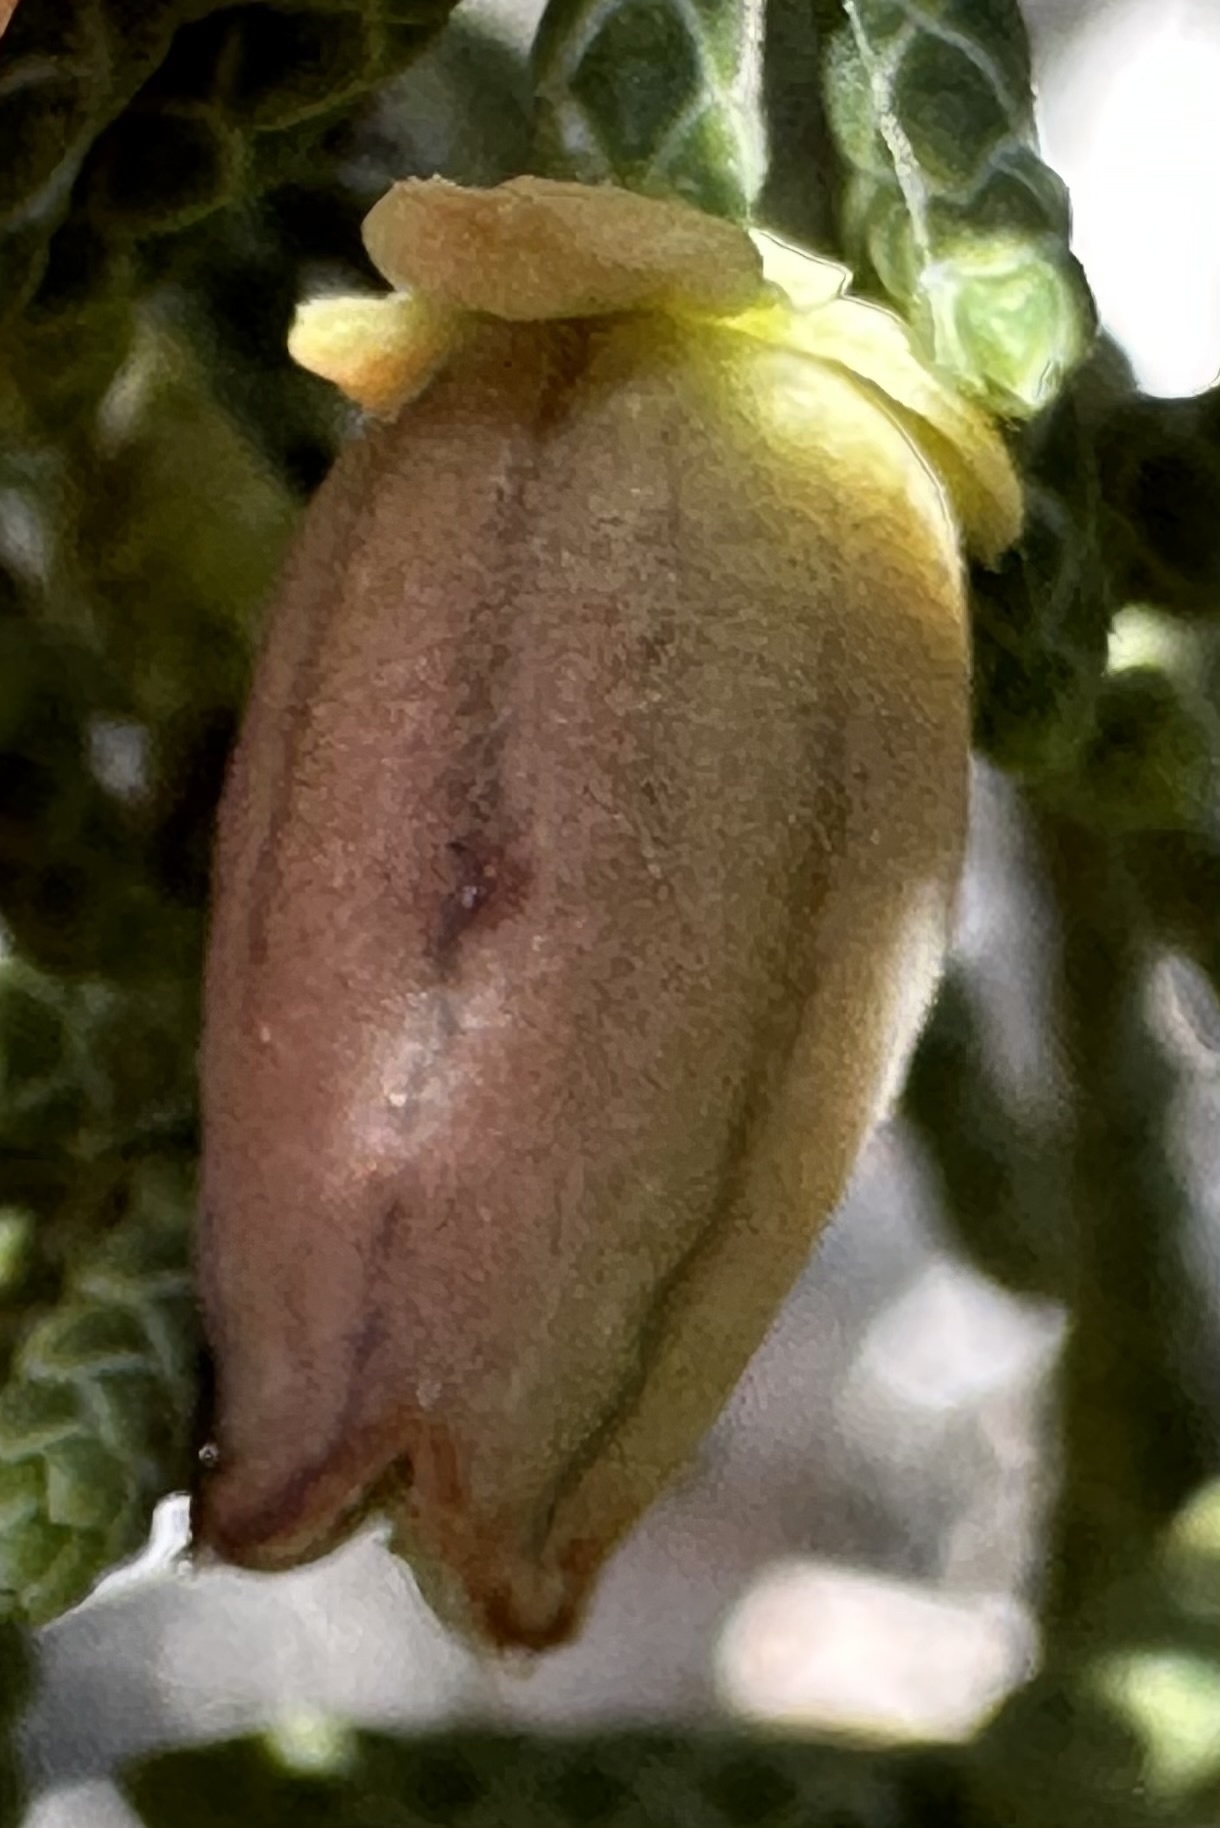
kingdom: Animalia
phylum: Arthropoda
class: Insecta
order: Diptera
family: Cecidomyiidae
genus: Walshomyia
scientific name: Walshomyia juniperina
